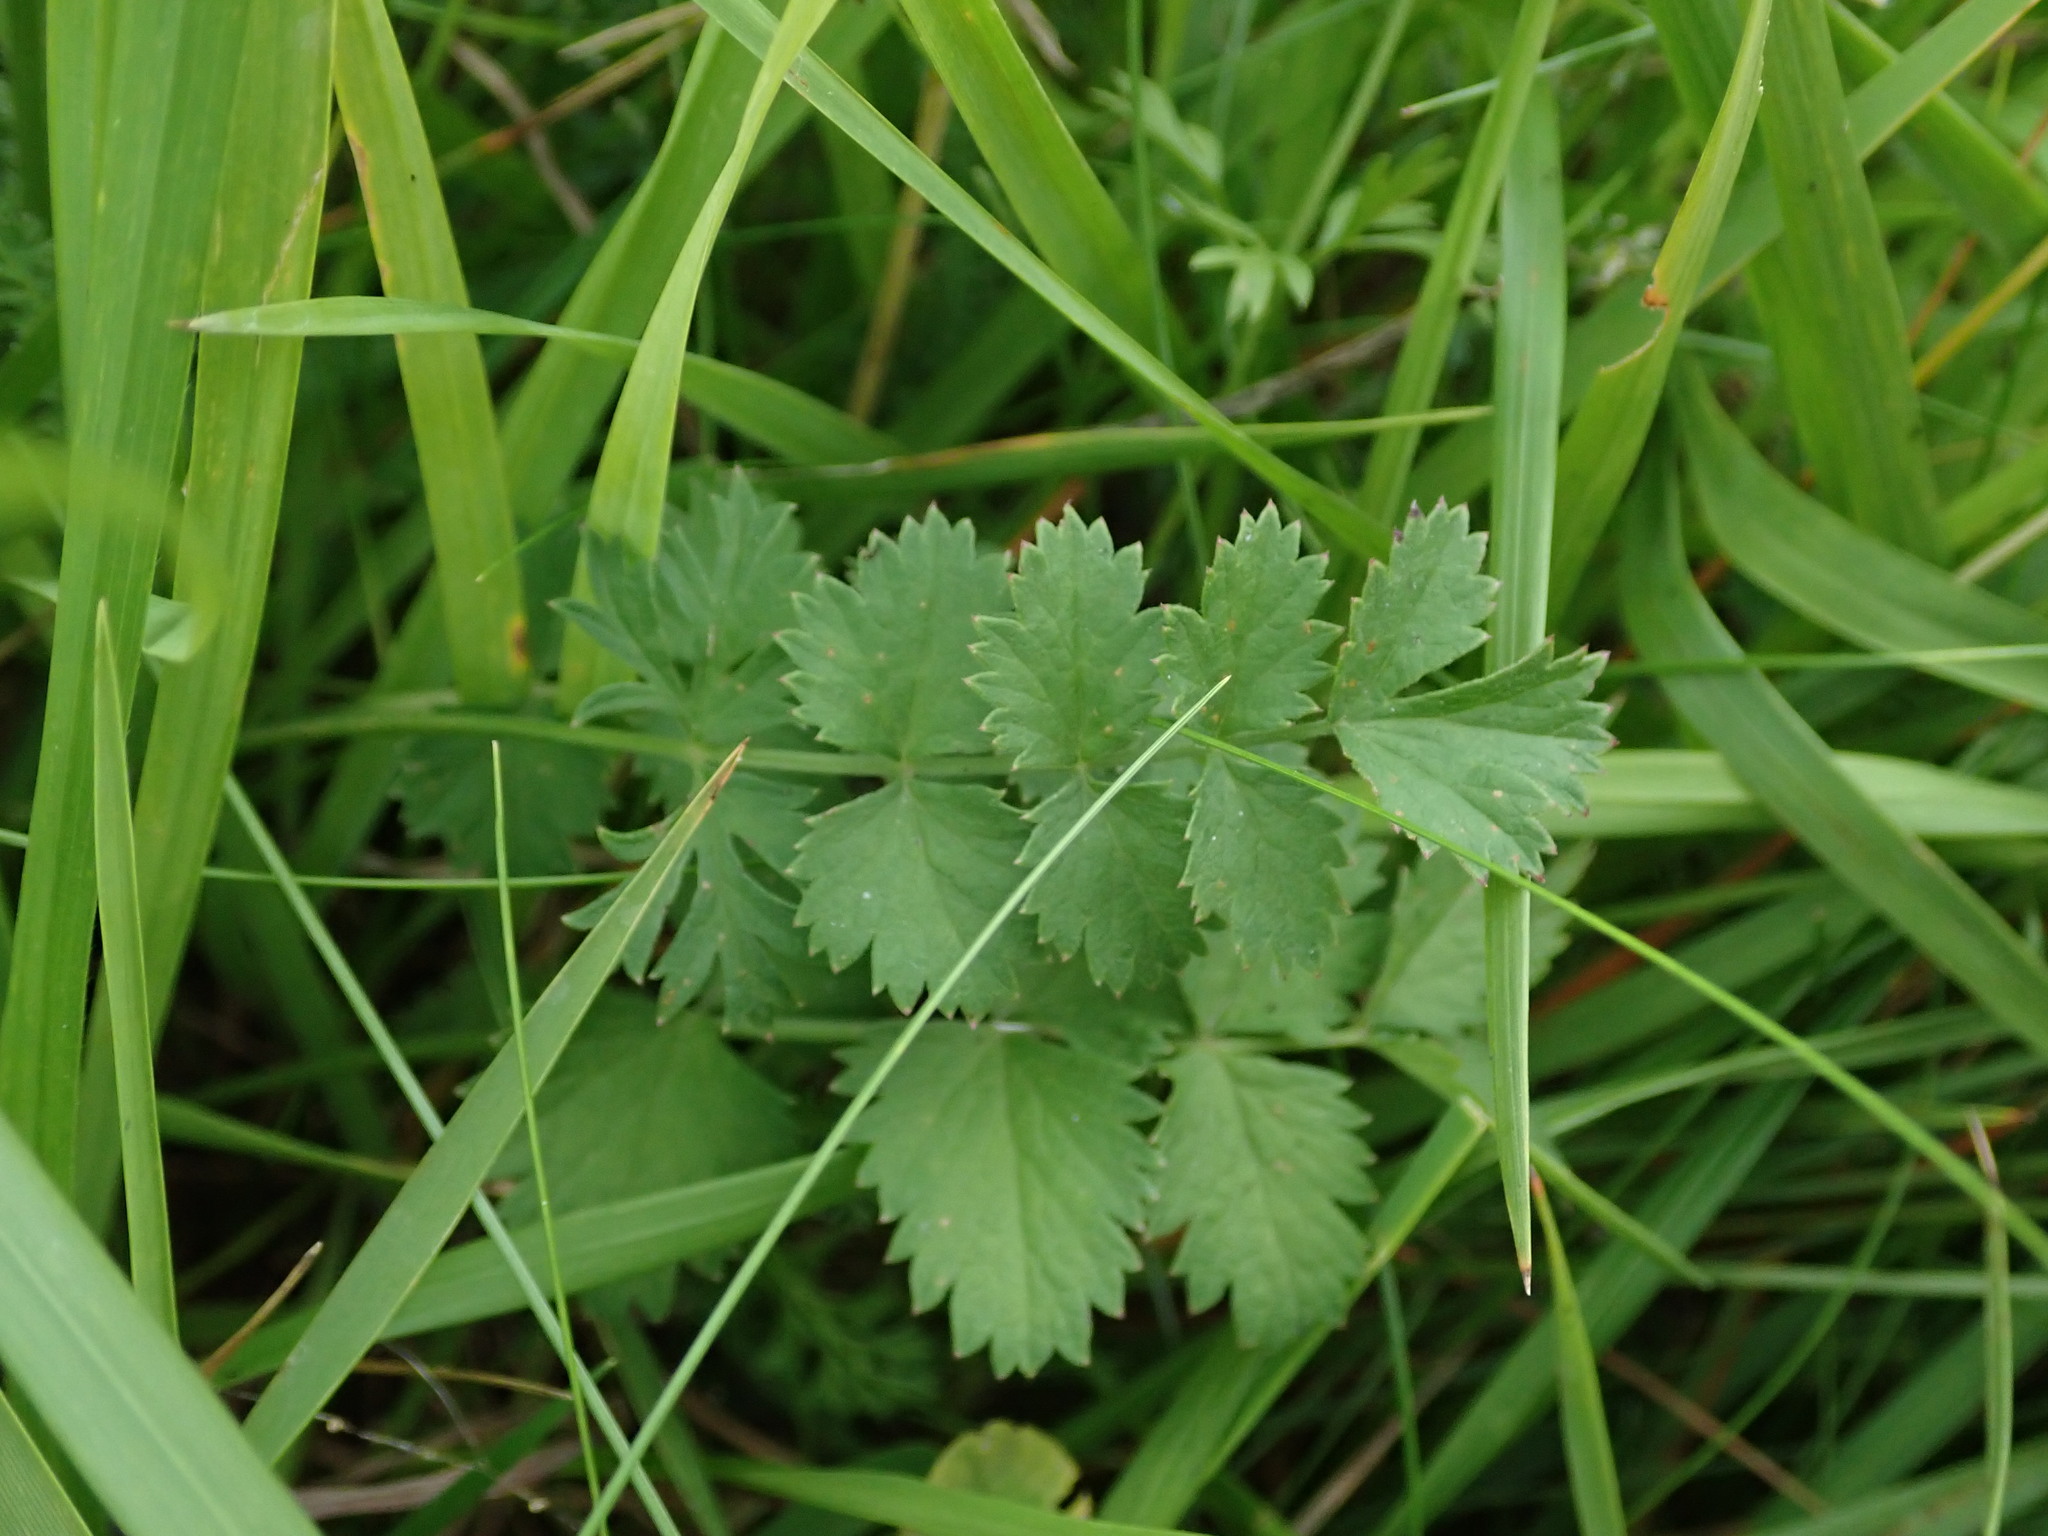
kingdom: Plantae
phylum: Tracheophyta
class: Magnoliopsida
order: Apiales
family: Apiaceae
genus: Pimpinella
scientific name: Pimpinella saxifraga
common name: Burnet-saxifrage
